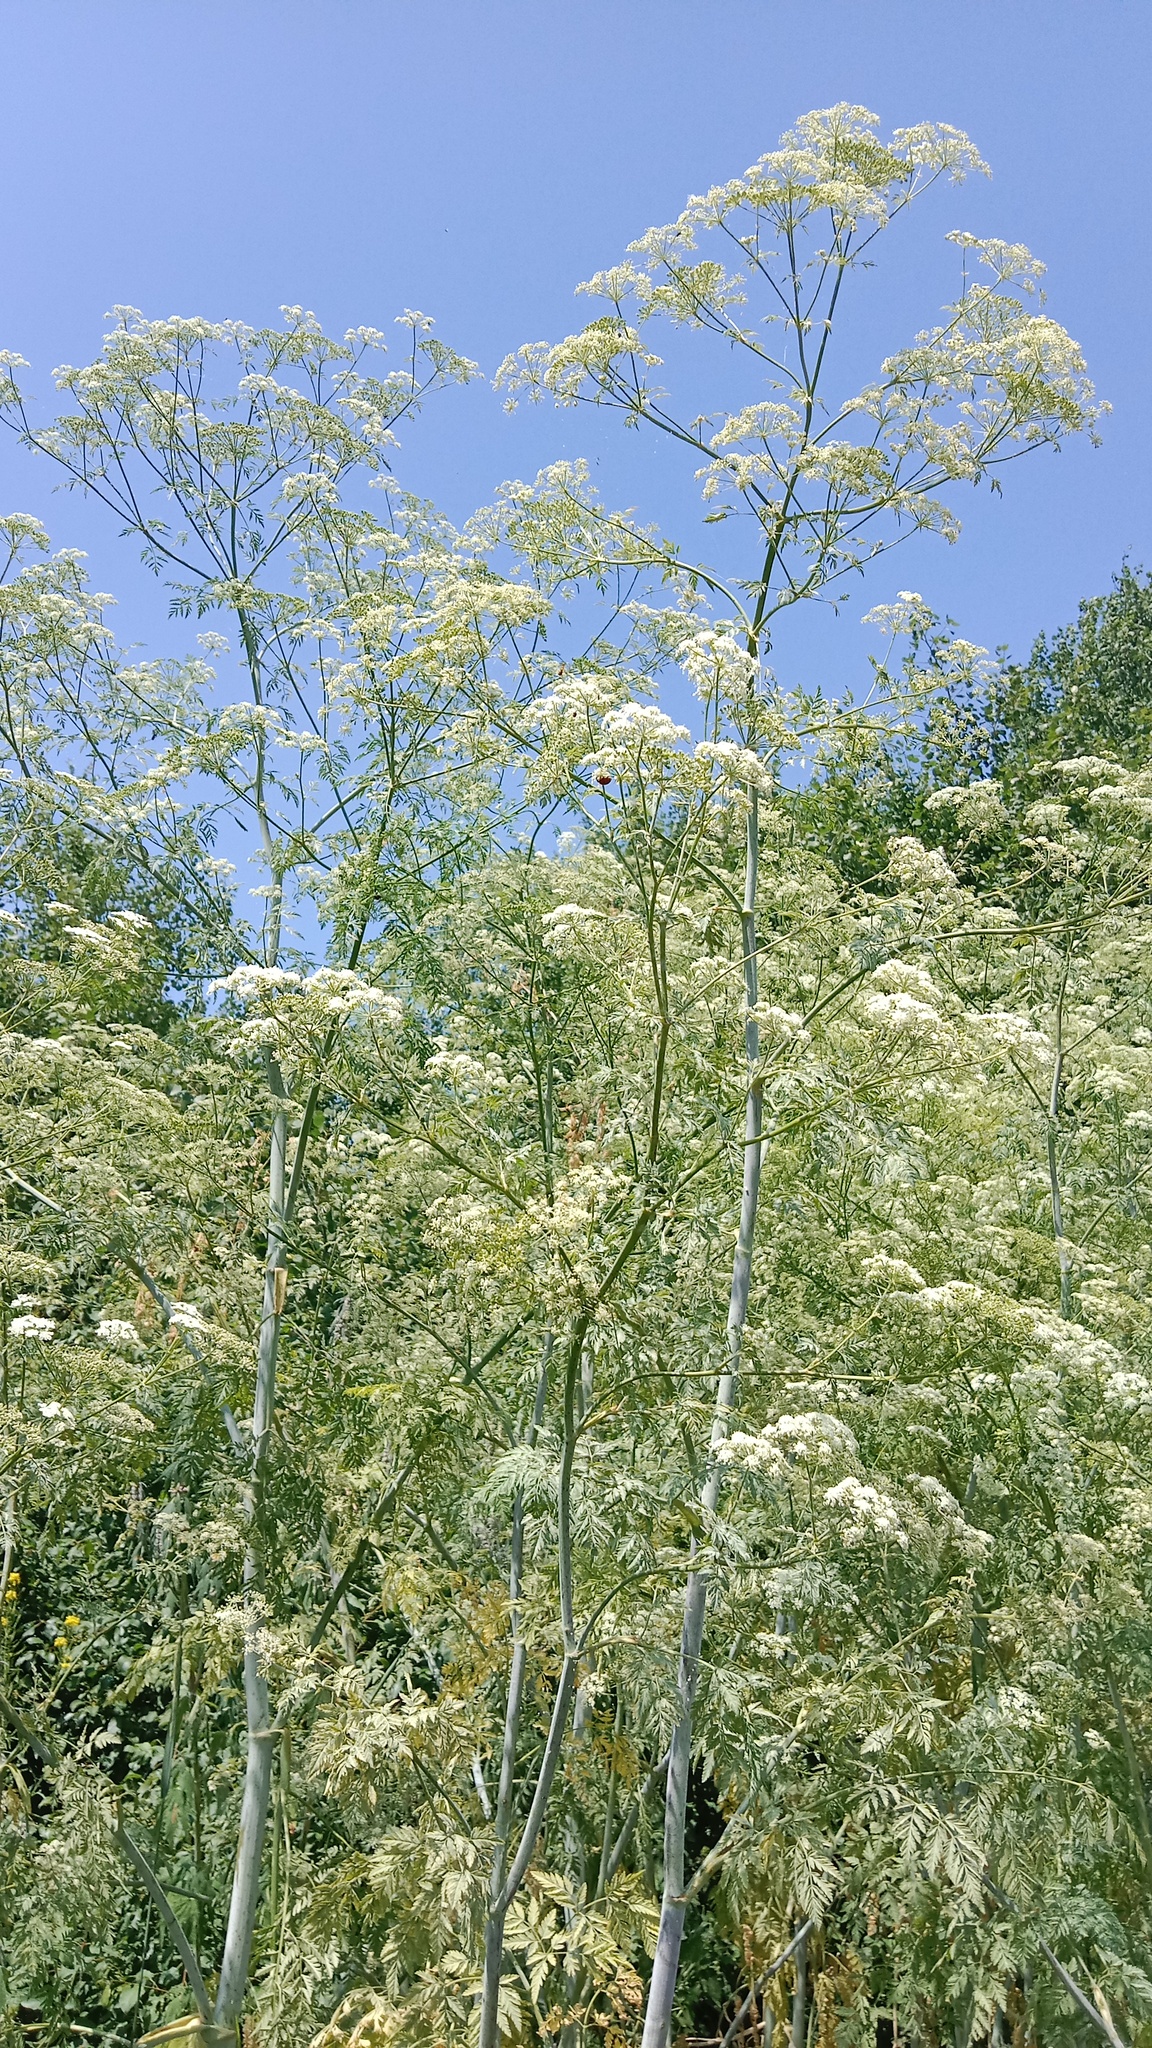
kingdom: Plantae
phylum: Tracheophyta
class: Magnoliopsida
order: Apiales
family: Apiaceae
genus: Conium
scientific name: Conium maculatum
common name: Hemlock
